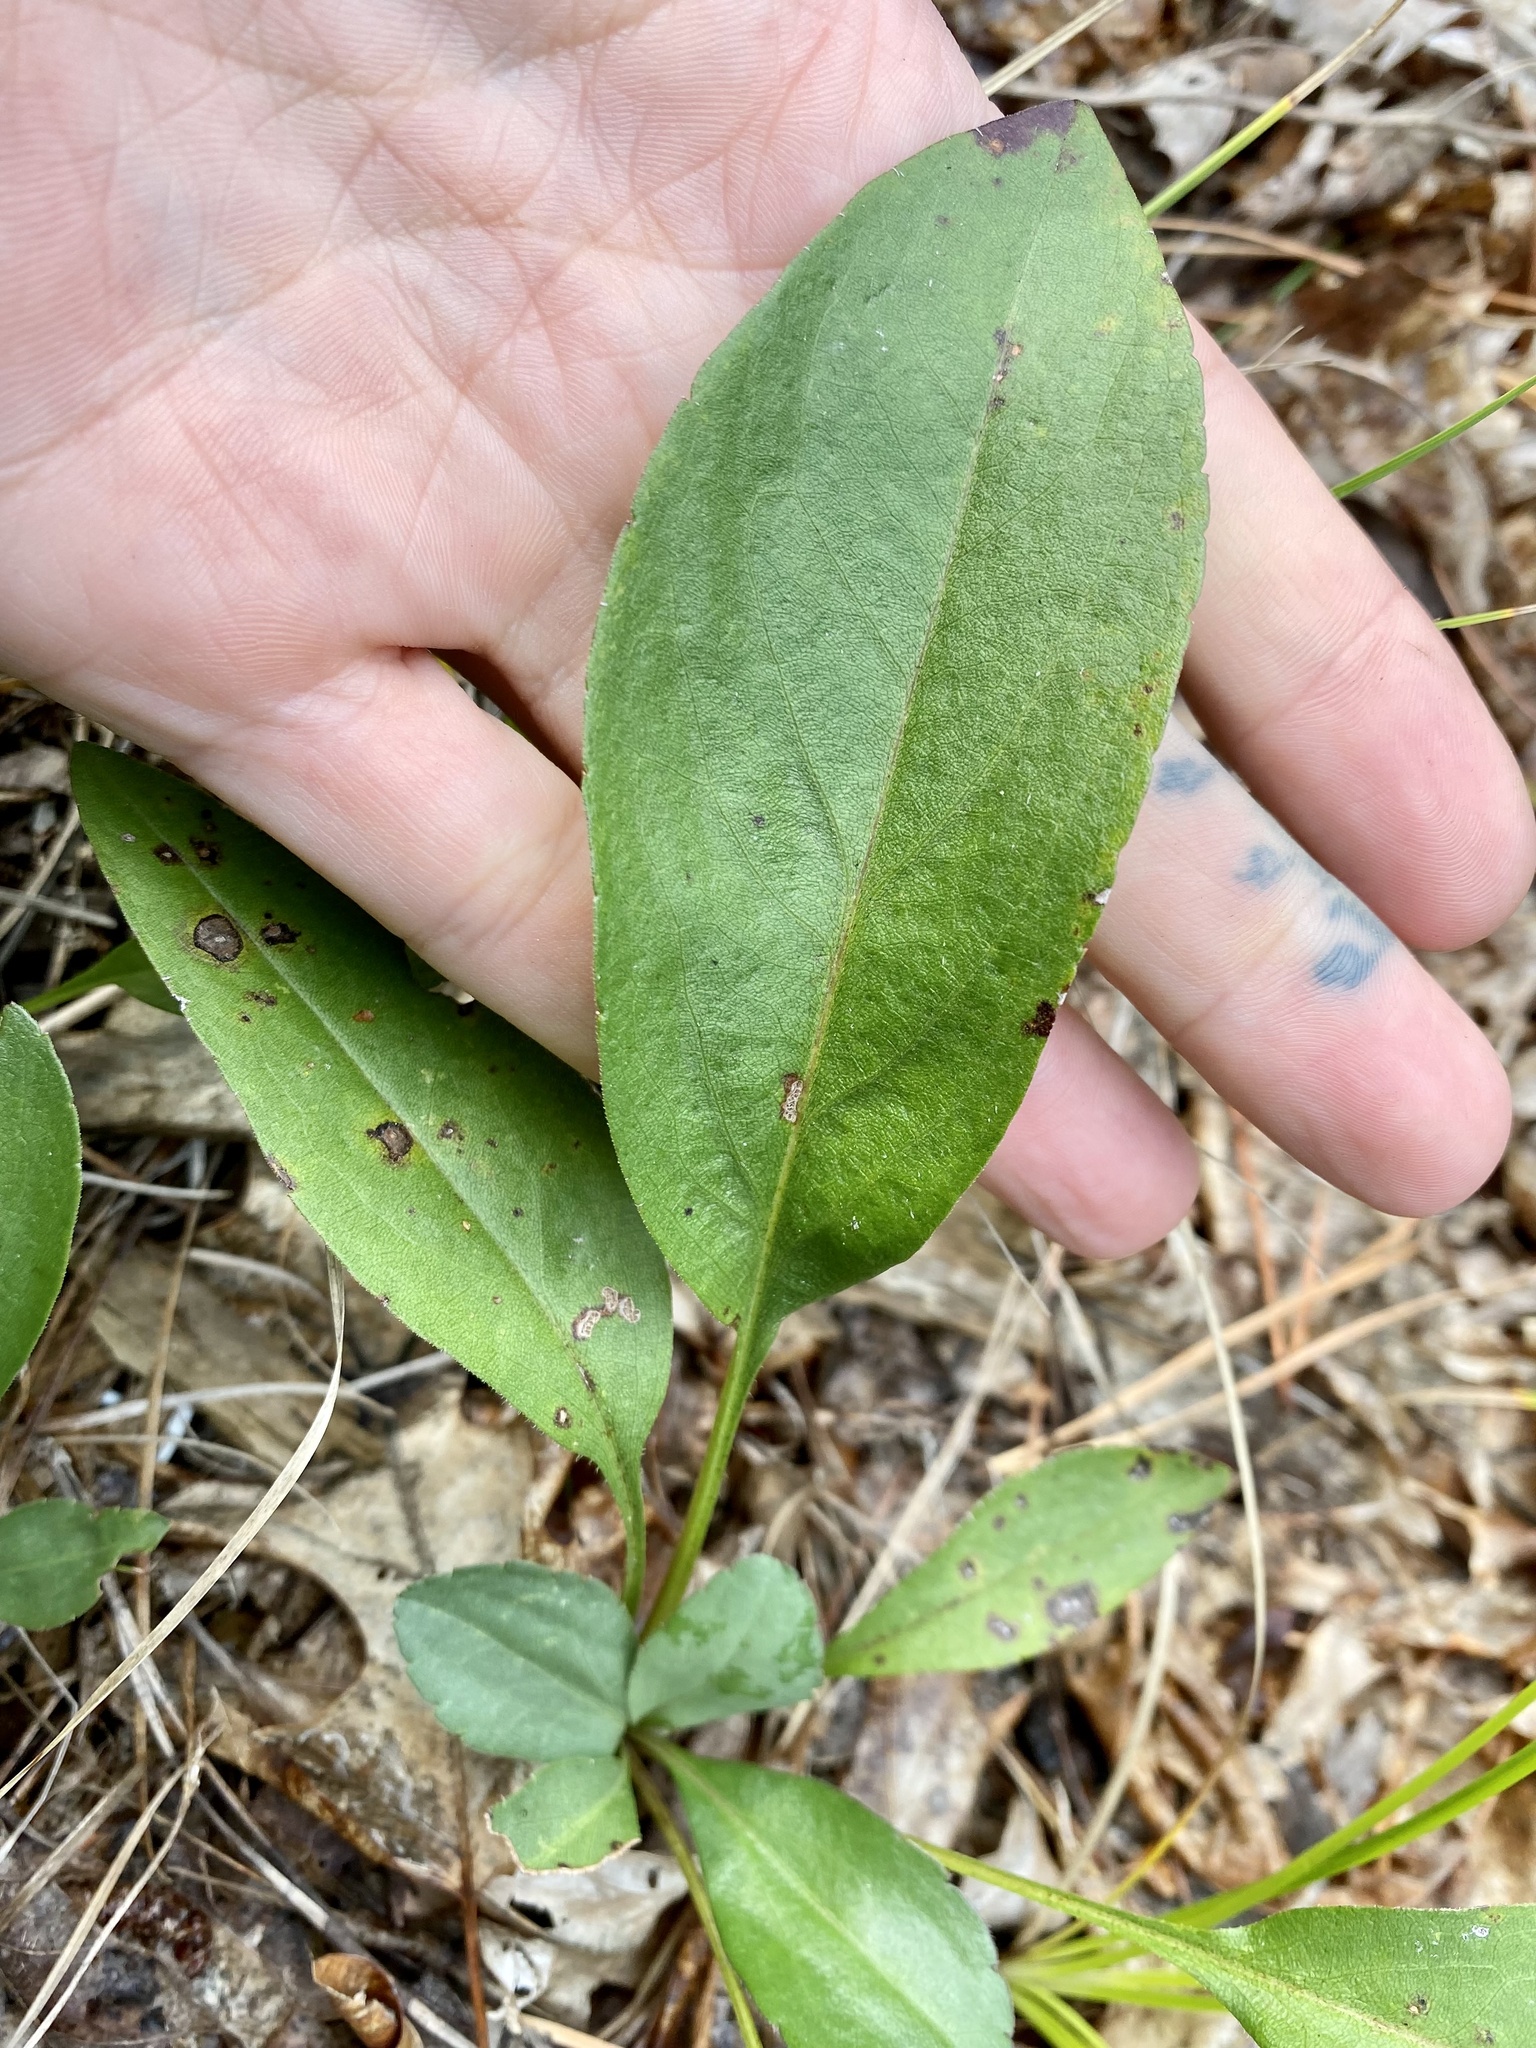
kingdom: Plantae
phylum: Tracheophyta
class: Magnoliopsida
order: Asterales
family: Asteraceae
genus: Eurybia
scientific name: Eurybia spectabilis
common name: Low showy aster
